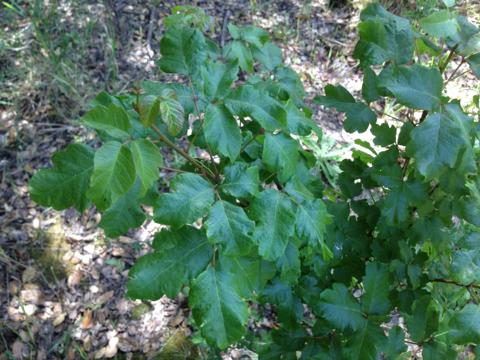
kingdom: Plantae
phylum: Tracheophyta
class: Magnoliopsida
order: Sapindales
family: Anacardiaceae
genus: Toxicodendron
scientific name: Toxicodendron diversilobum
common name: Pacific poison-oak
